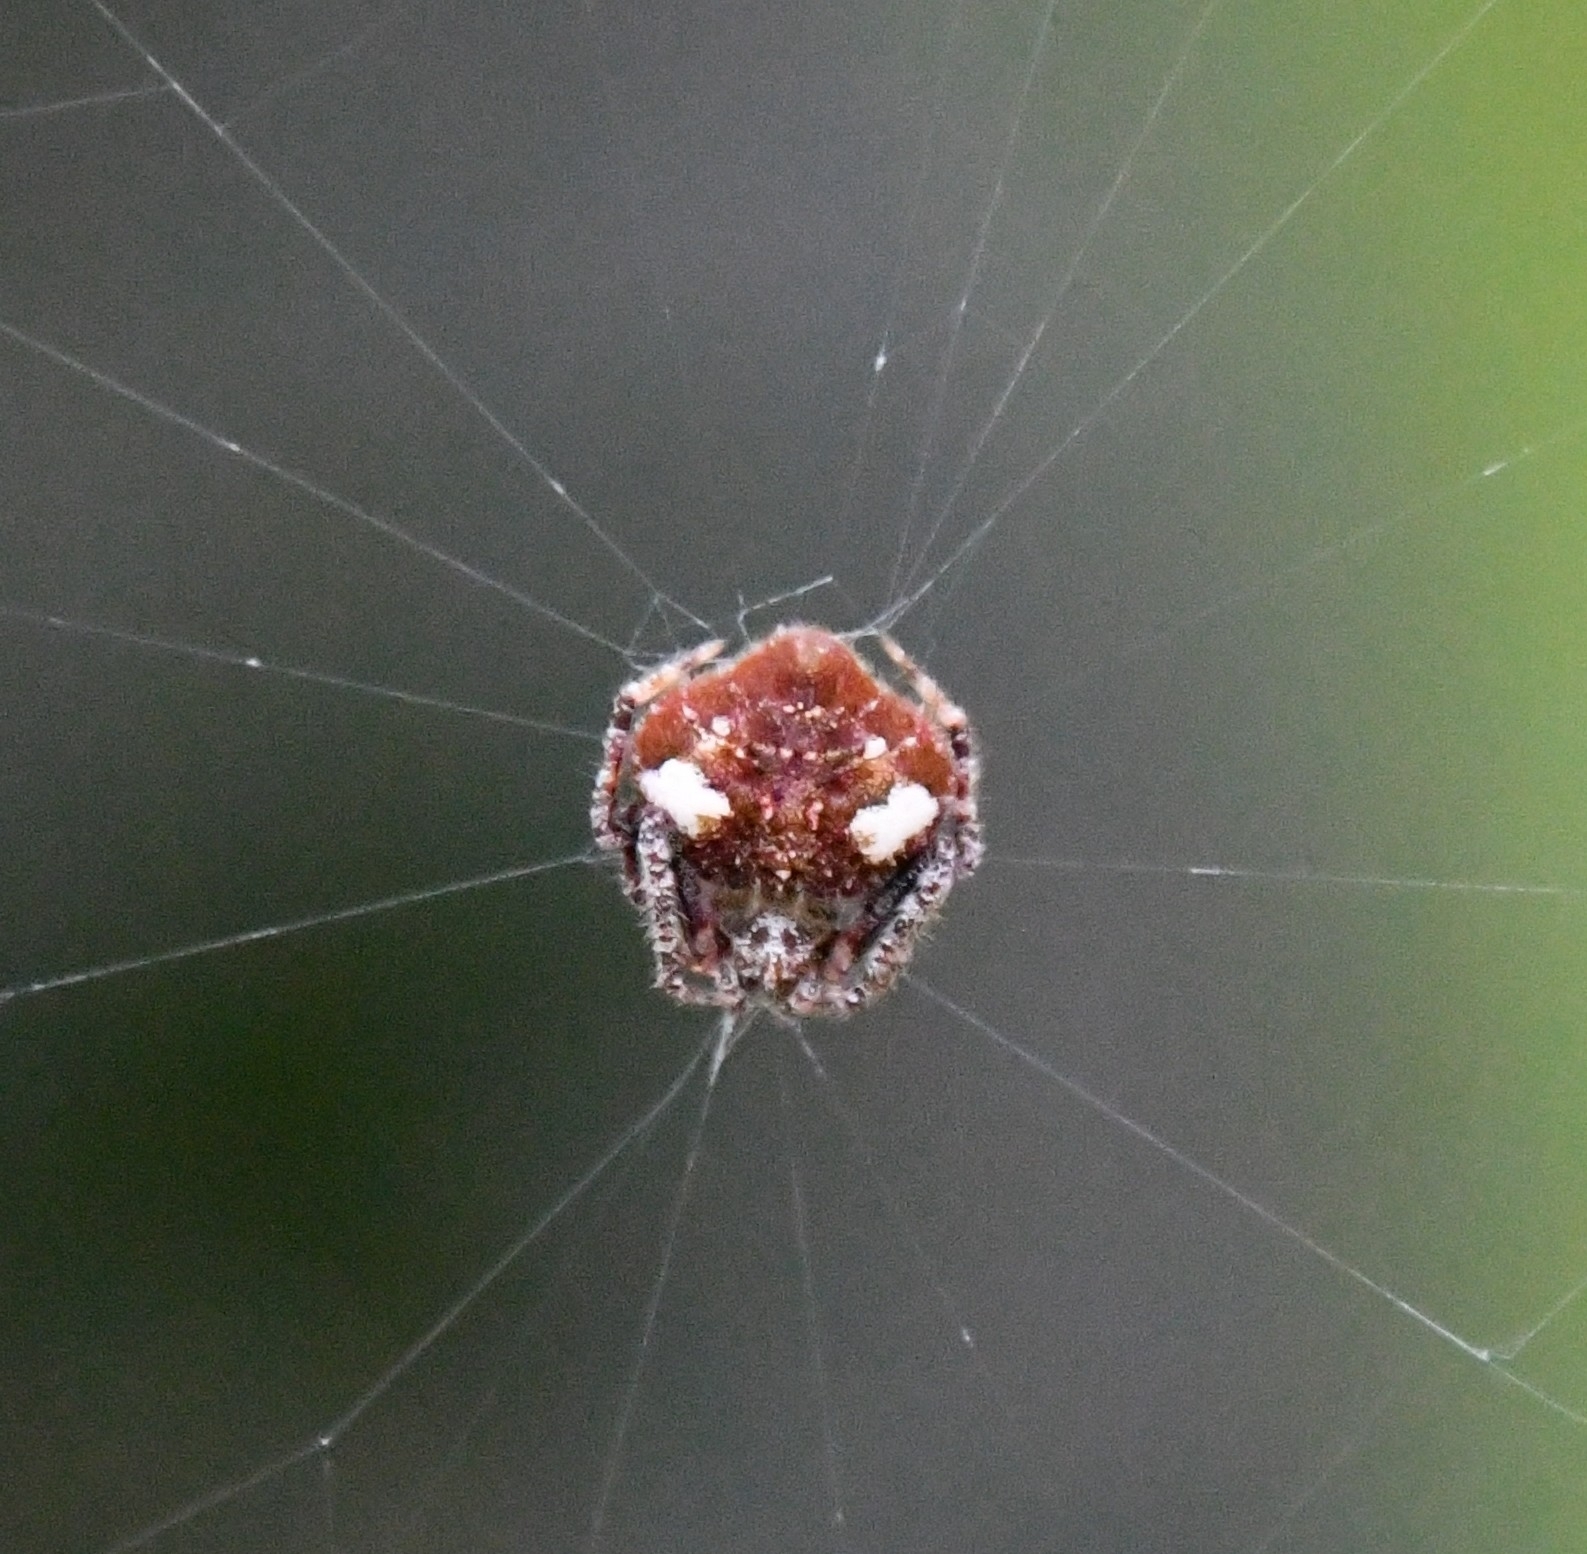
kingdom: Animalia
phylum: Arthropoda
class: Arachnida
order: Araneae
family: Araneidae
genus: Eriovixia
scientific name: Eriovixia laglaizei
